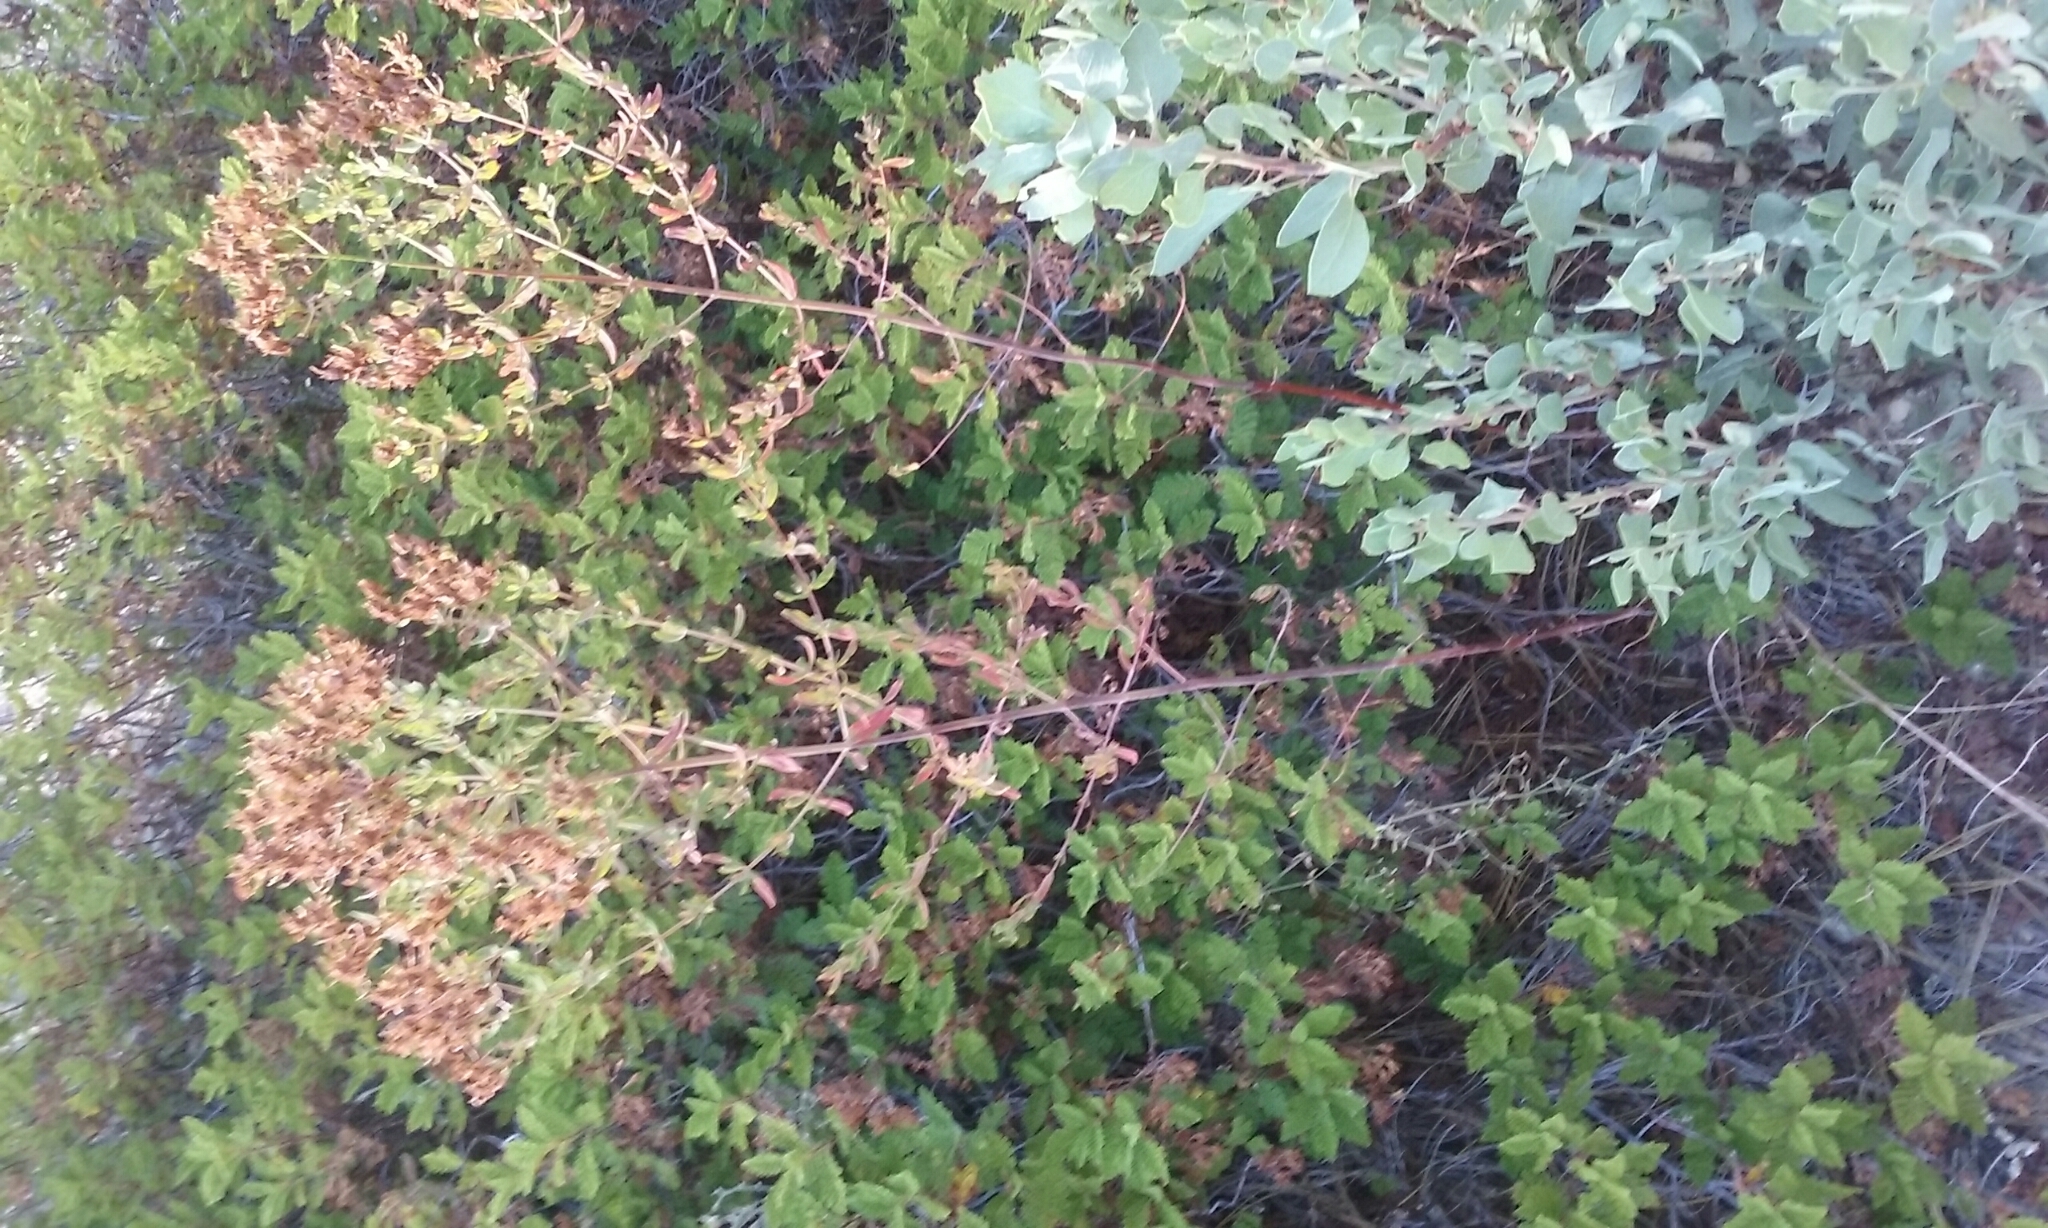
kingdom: Plantae
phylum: Tracheophyta
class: Magnoliopsida
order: Malpighiales
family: Hypericaceae
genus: Hypericum
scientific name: Hypericum perforatum
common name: Common st. johnswort
